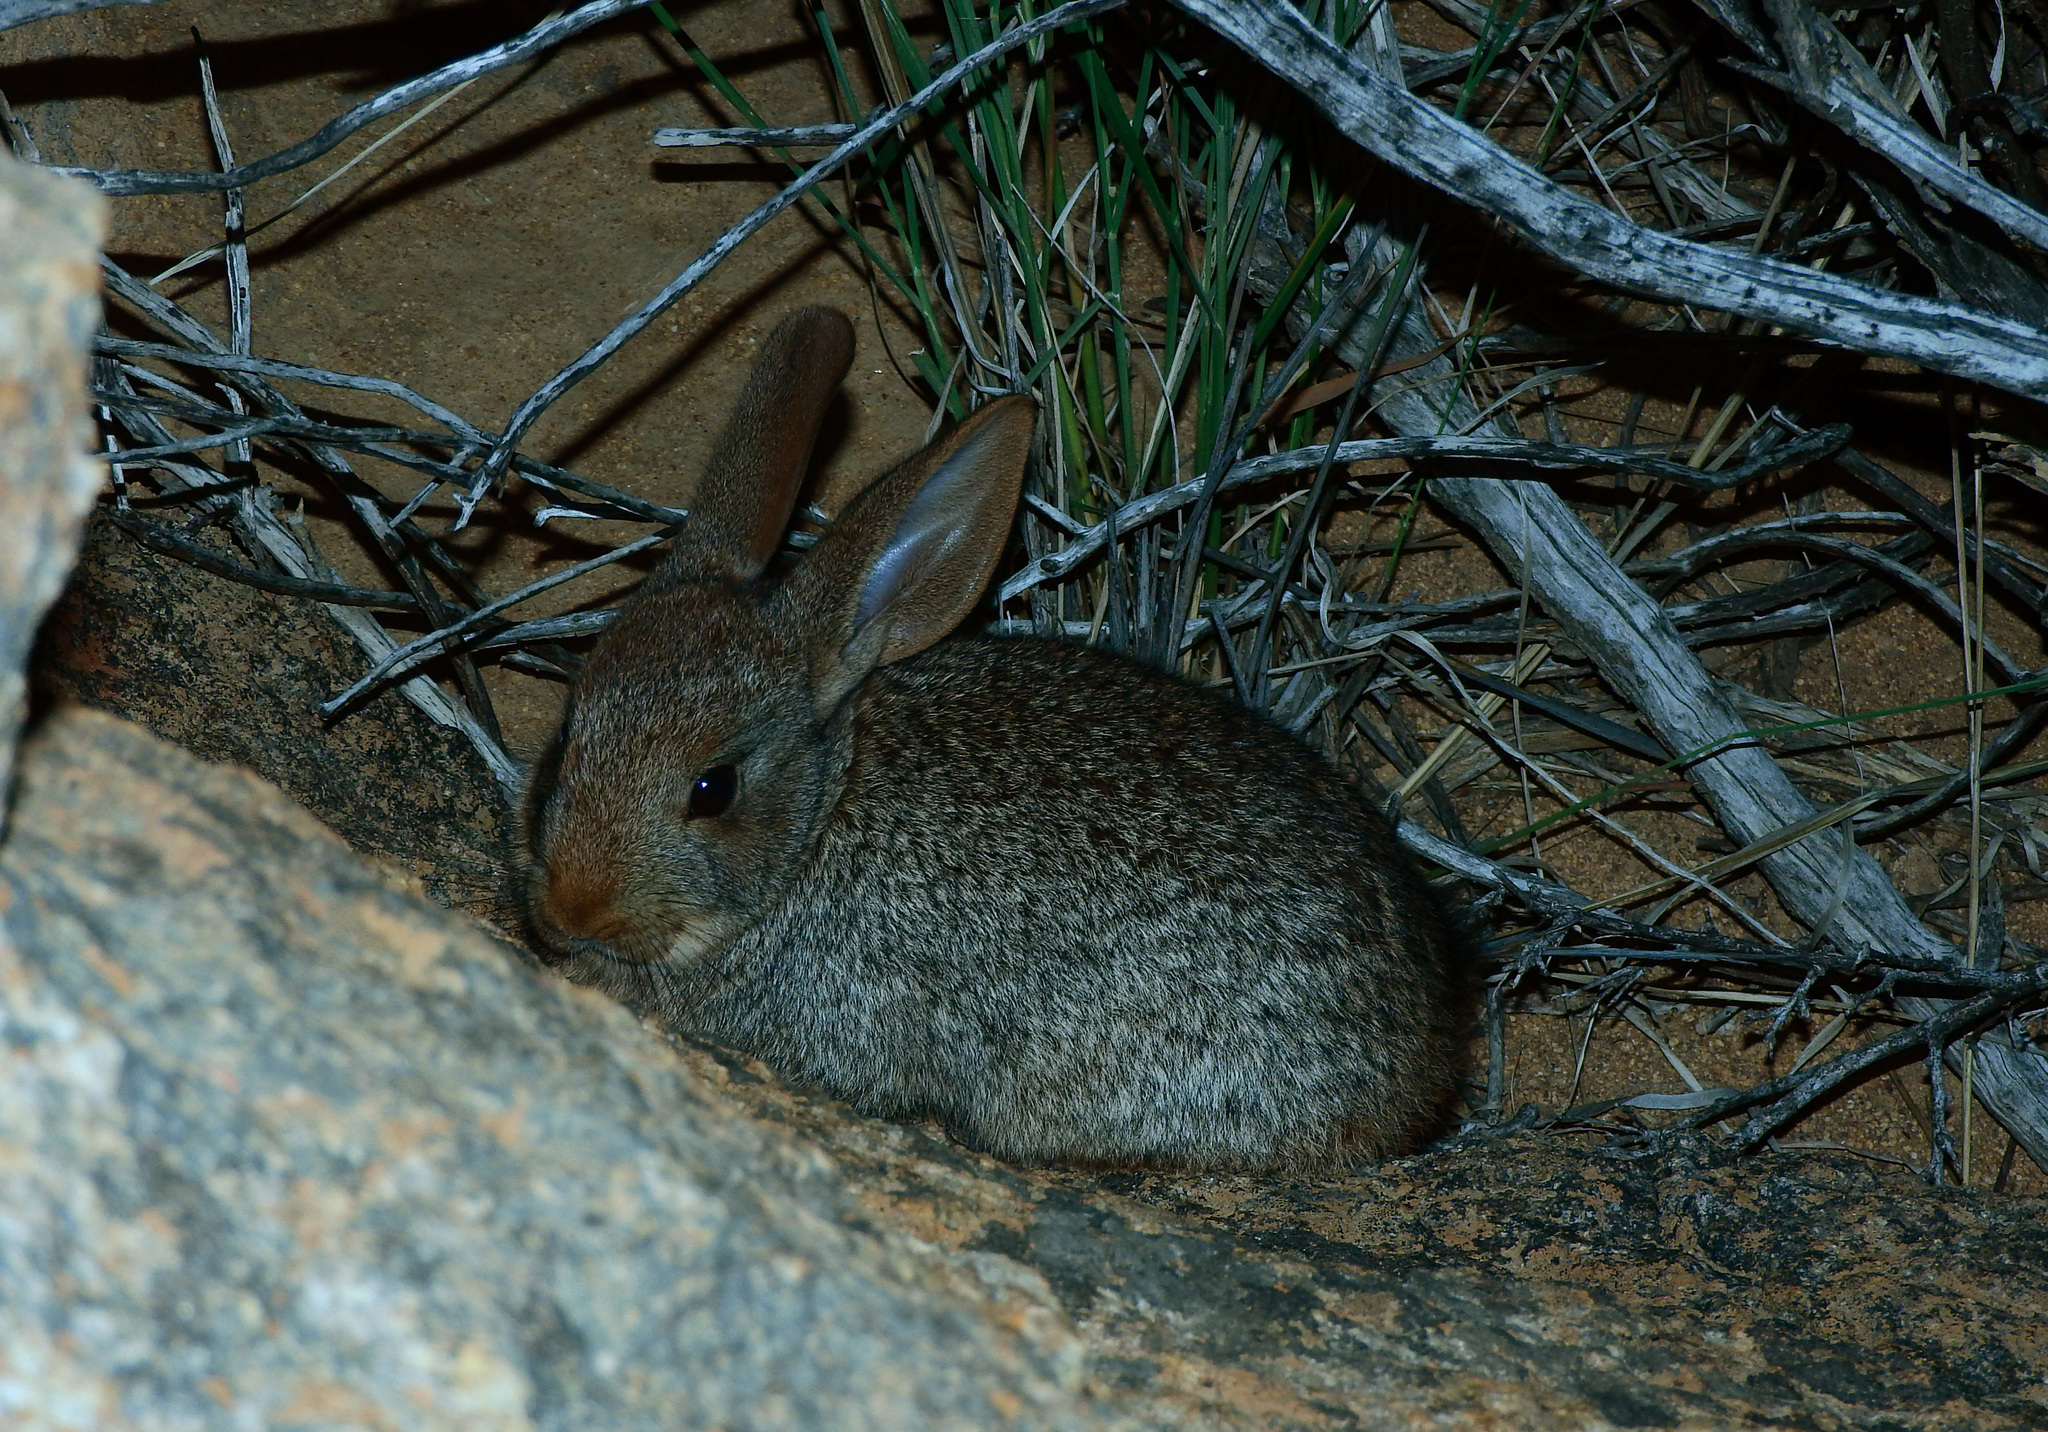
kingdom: Animalia
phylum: Chordata
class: Mammalia
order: Lagomorpha
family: Leporidae
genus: Pronolagus
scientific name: Pronolagus rupestris
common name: Smith's red rock hare
